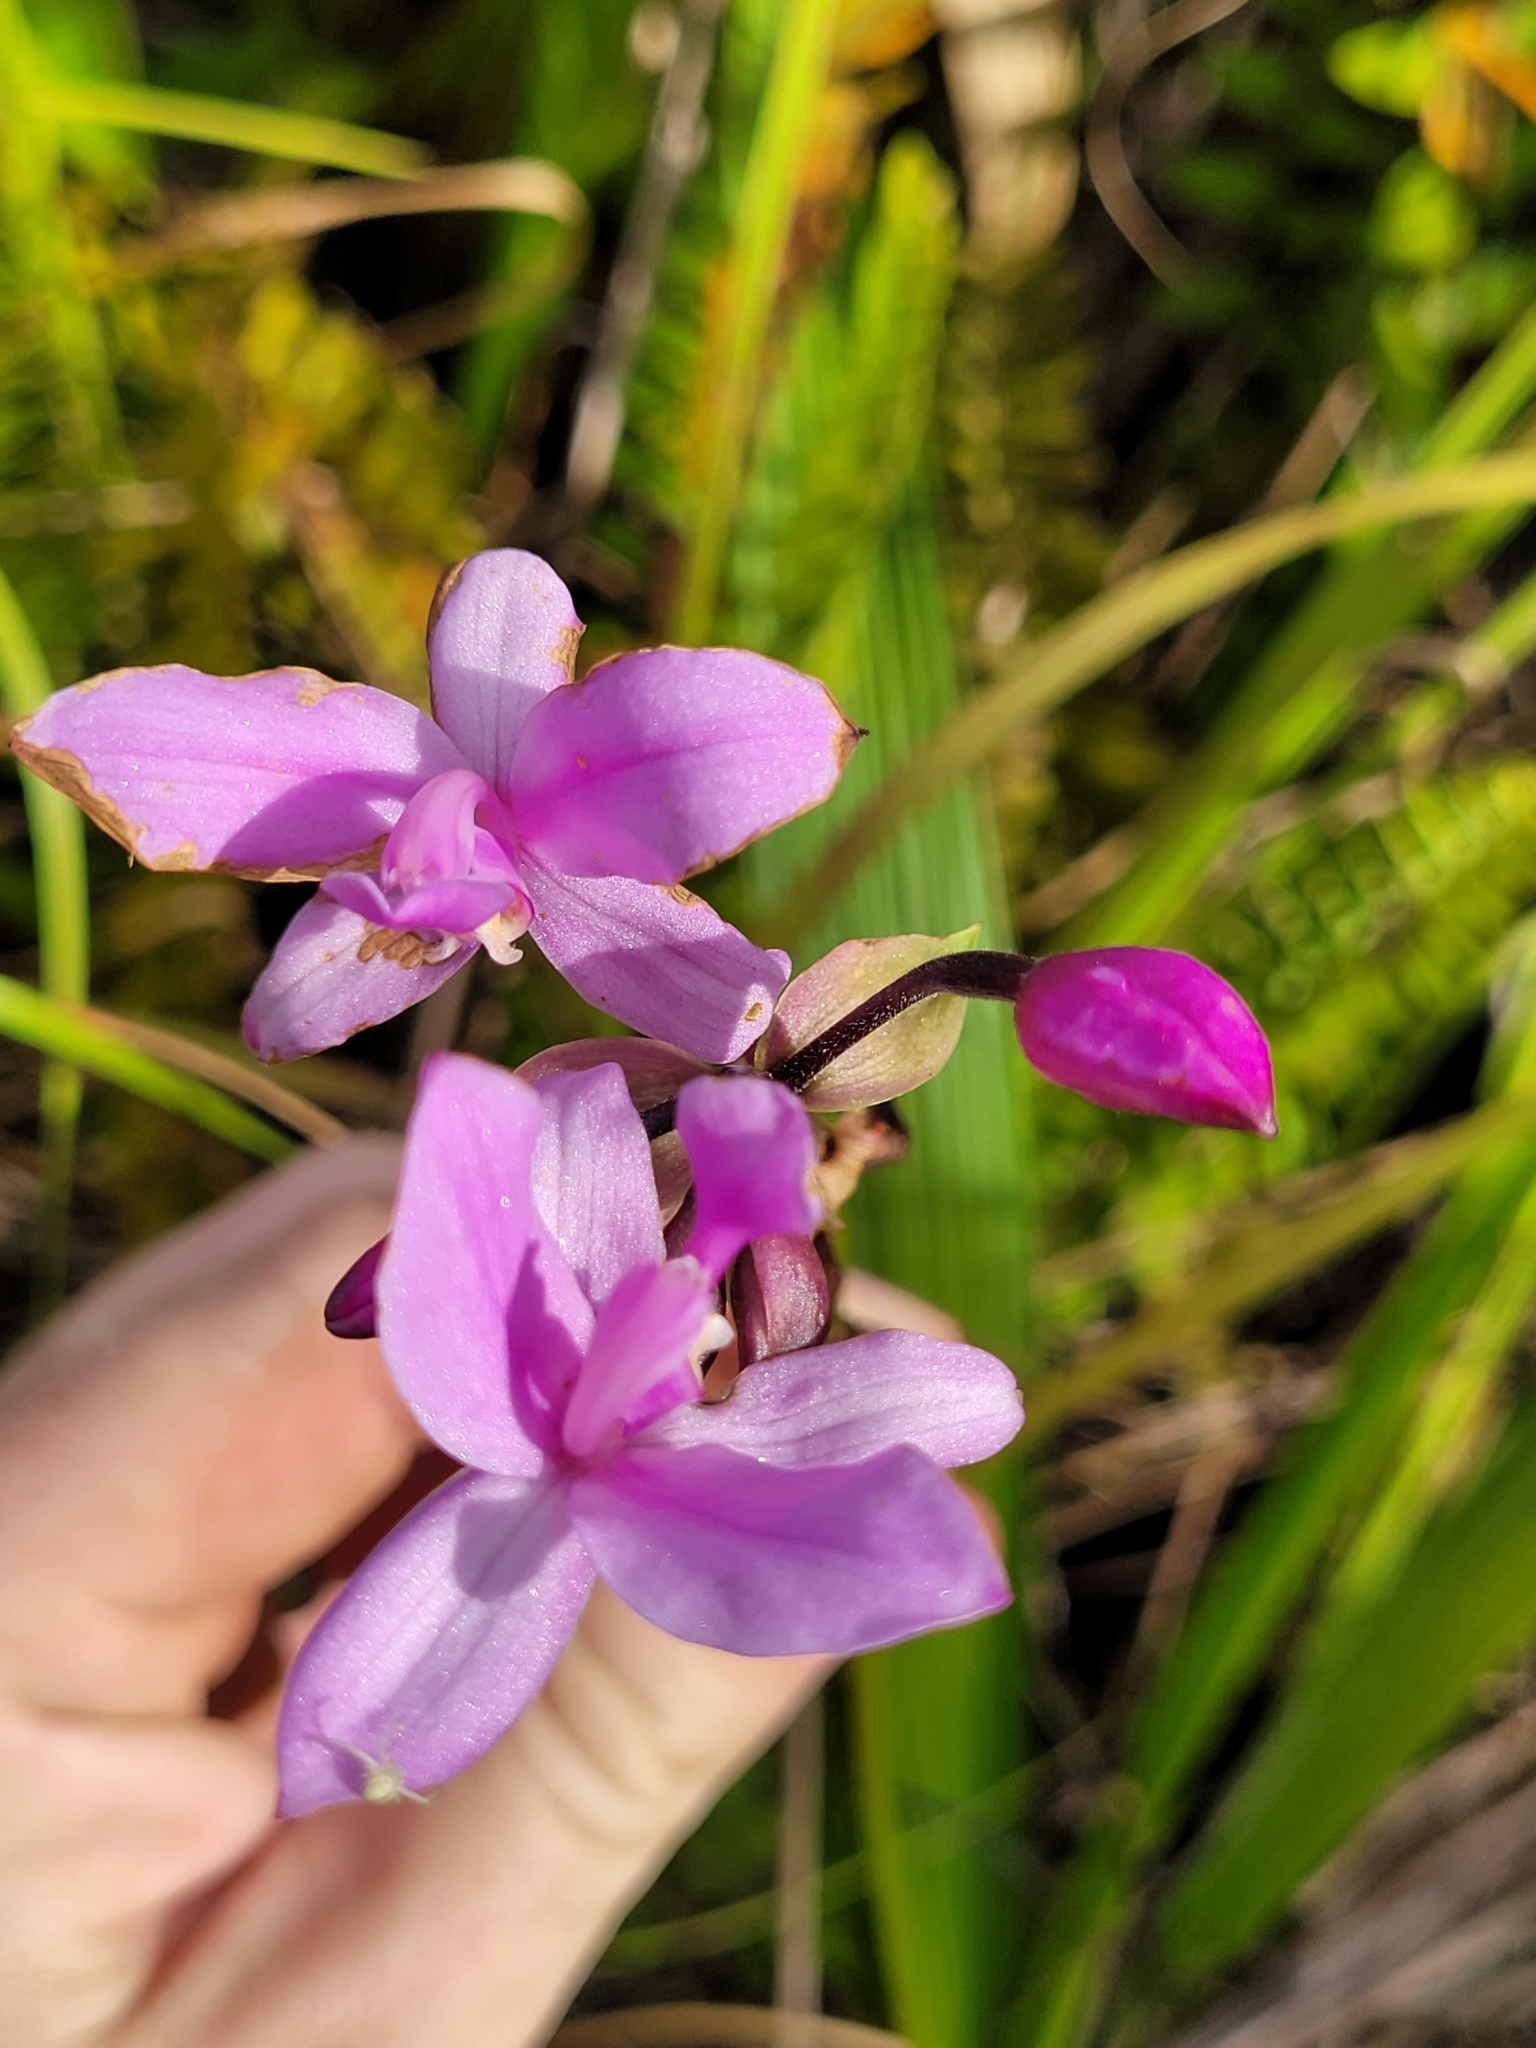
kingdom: Plantae
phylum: Tracheophyta
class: Liliopsida
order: Asparagales
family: Orchidaceae
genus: Spathoglottis
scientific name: Spathoglottis plicata
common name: Philippine ground orchid
